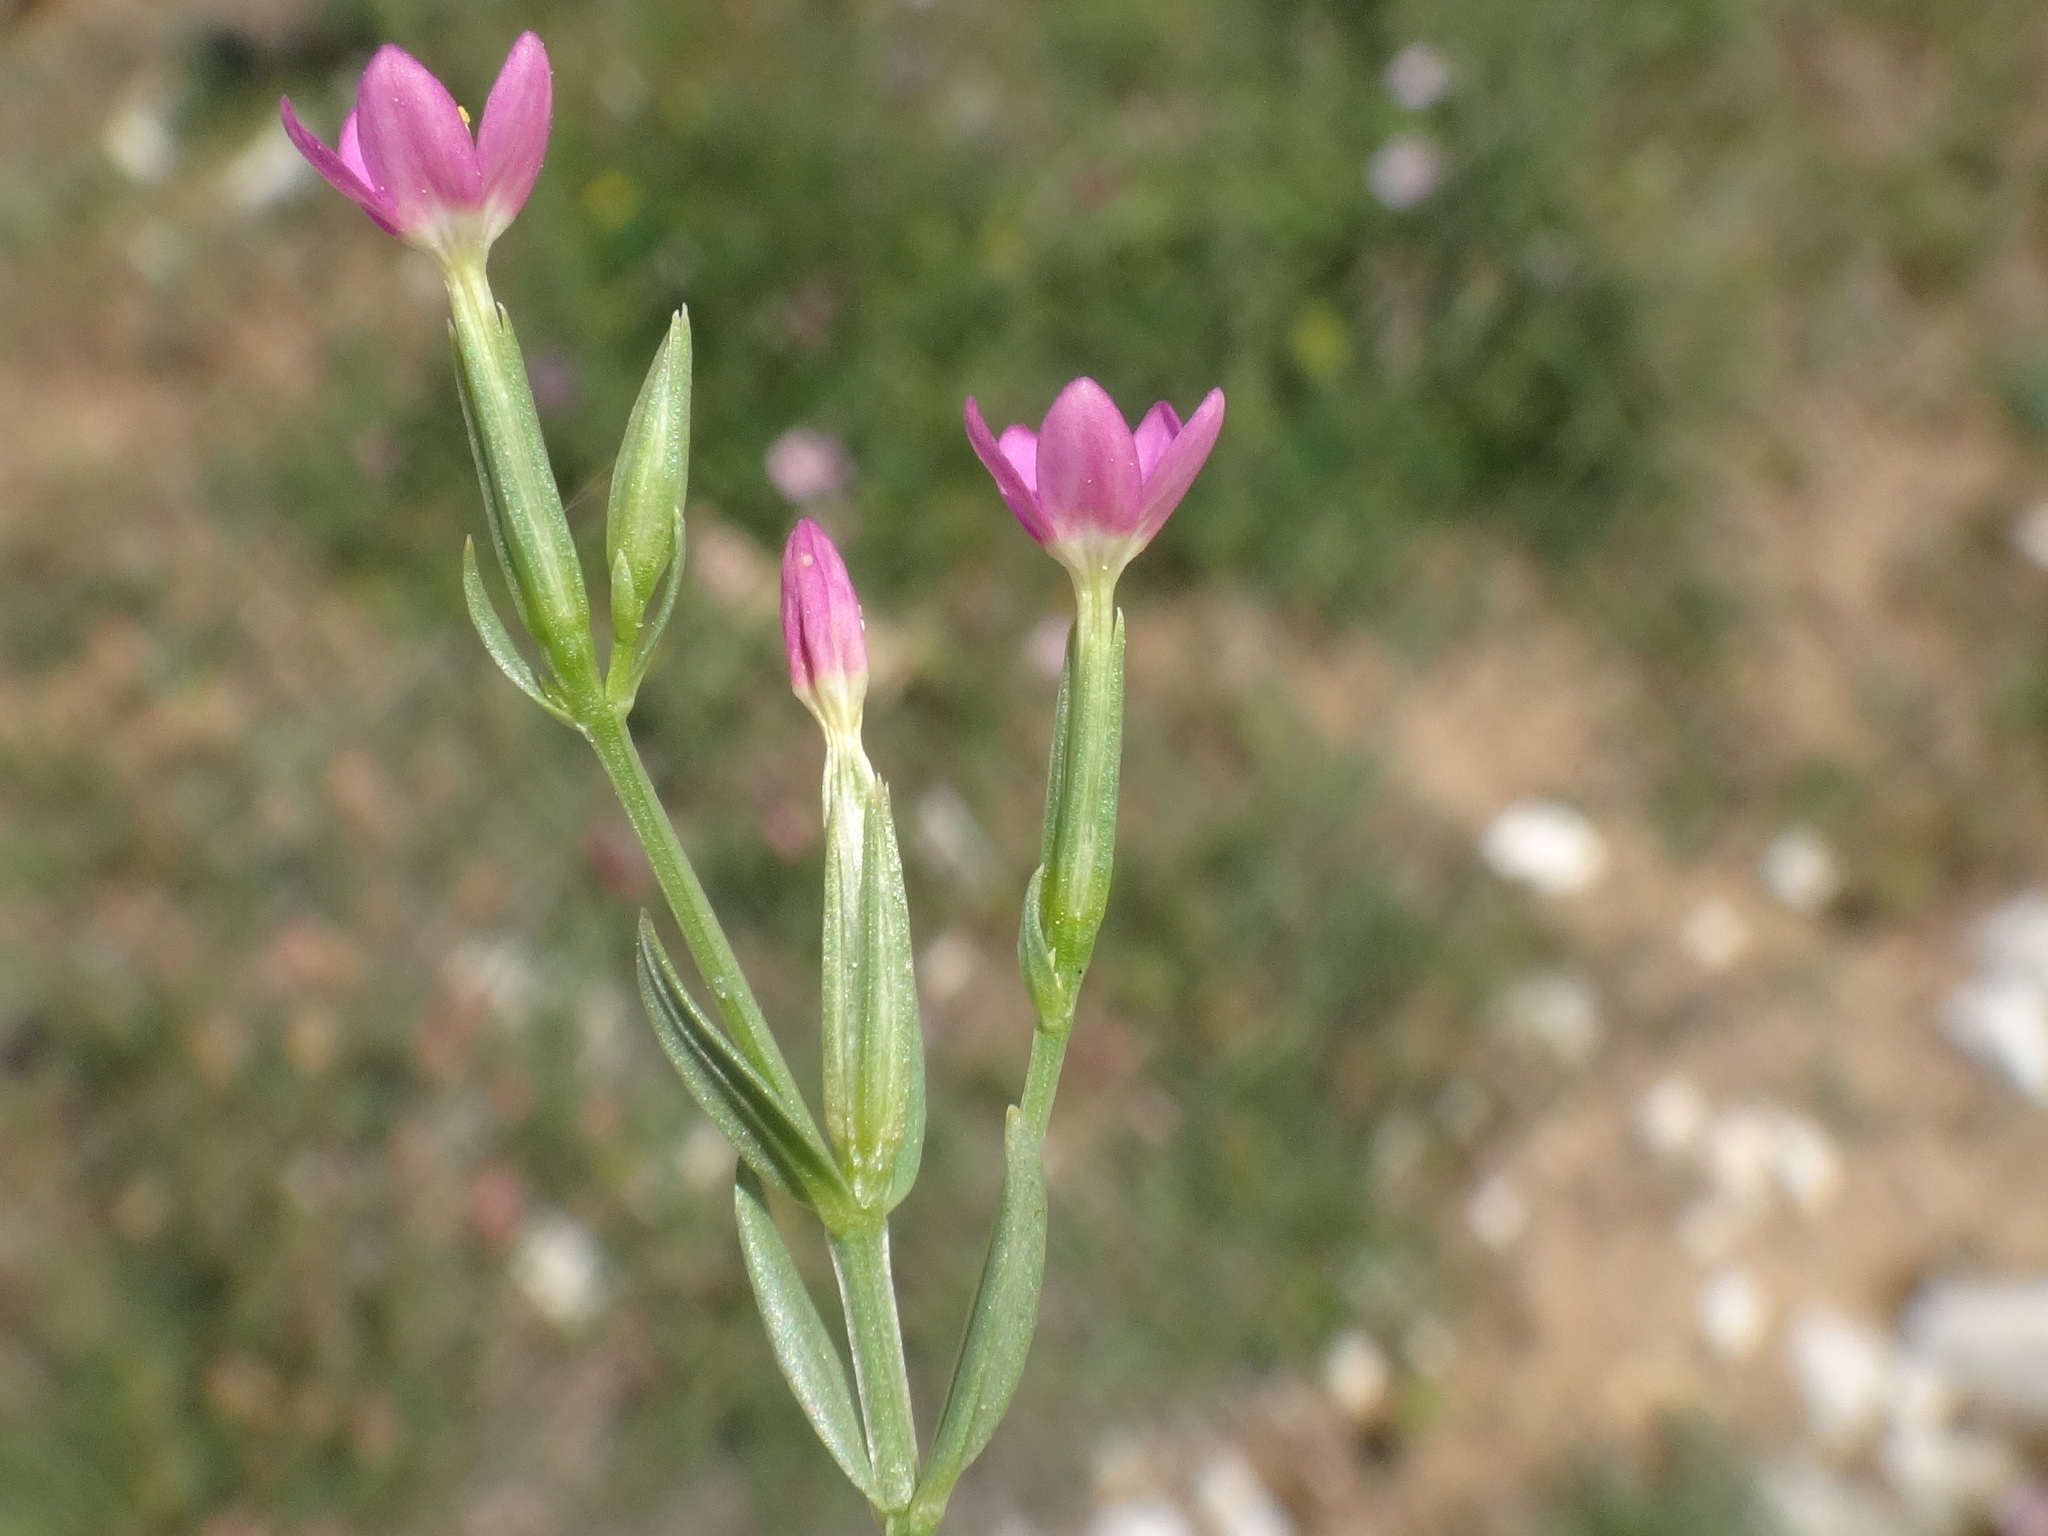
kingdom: Plantae
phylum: Tracheophyta
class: Magnoliopsida
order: Gentianales
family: Gentianaceae
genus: Centaurium
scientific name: Centaurium pulchellum
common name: Lesser centaury
